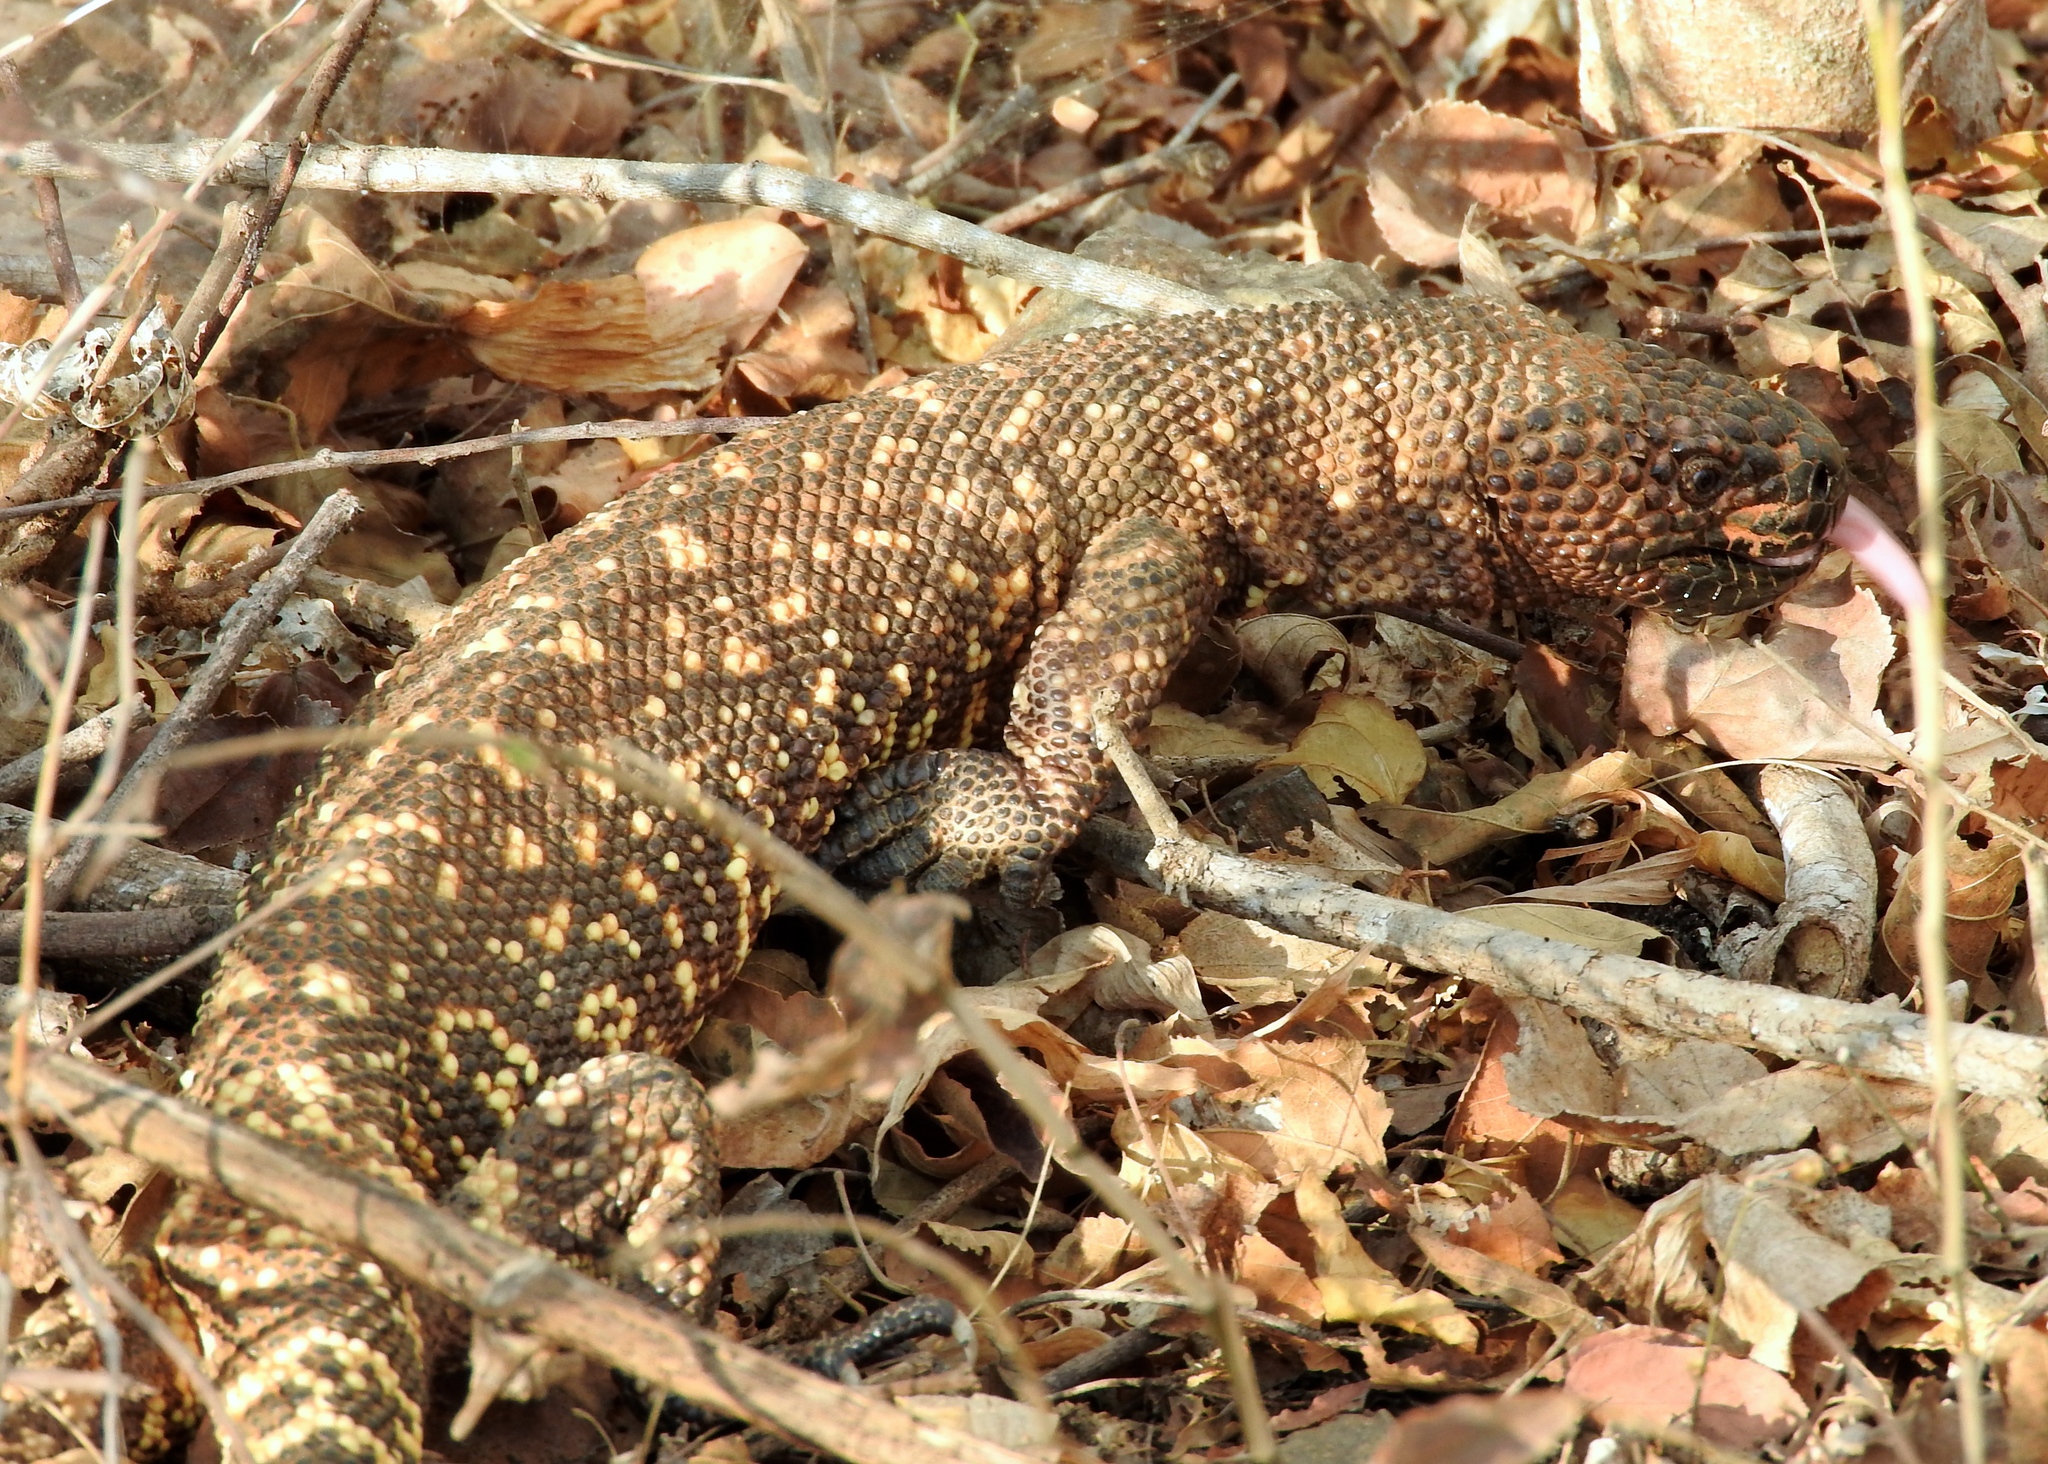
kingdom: Animalia
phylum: Chordata
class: Squamata
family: Helodermatidae
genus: Heloderma
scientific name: Heloderma horridum
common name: Mexican beaded lizard
